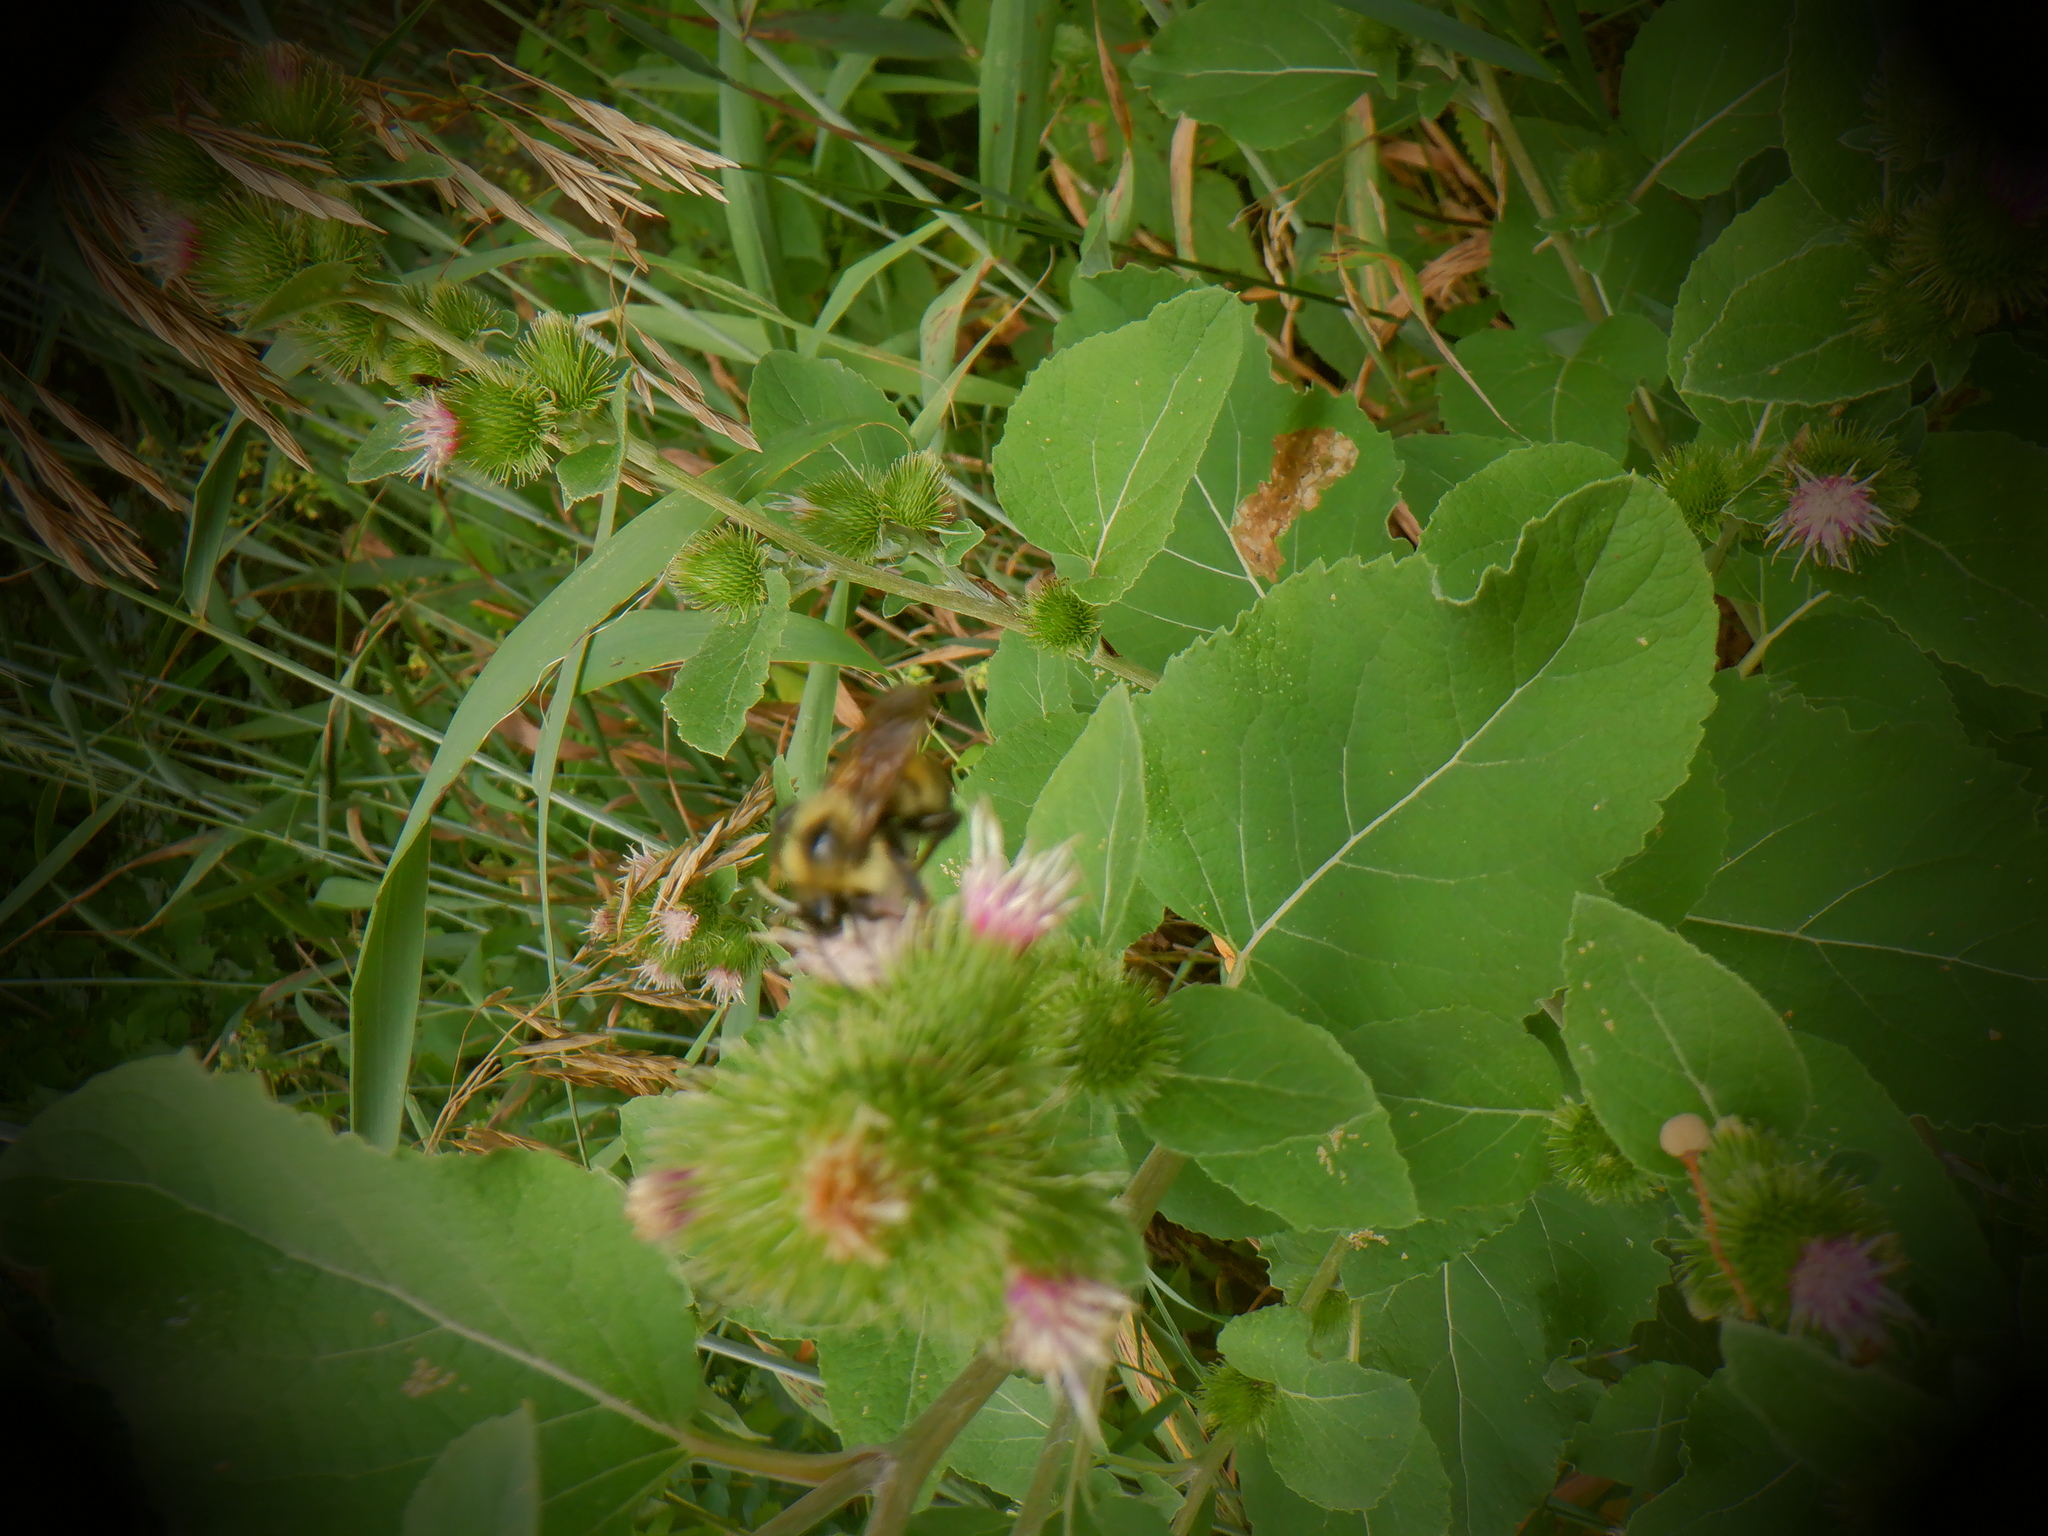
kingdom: Plantae
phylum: Tracheophyta
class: Magnoliopsida
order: Asterales
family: Asteraceae
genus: Arctium
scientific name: Arctium minus
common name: Lesser burdock
